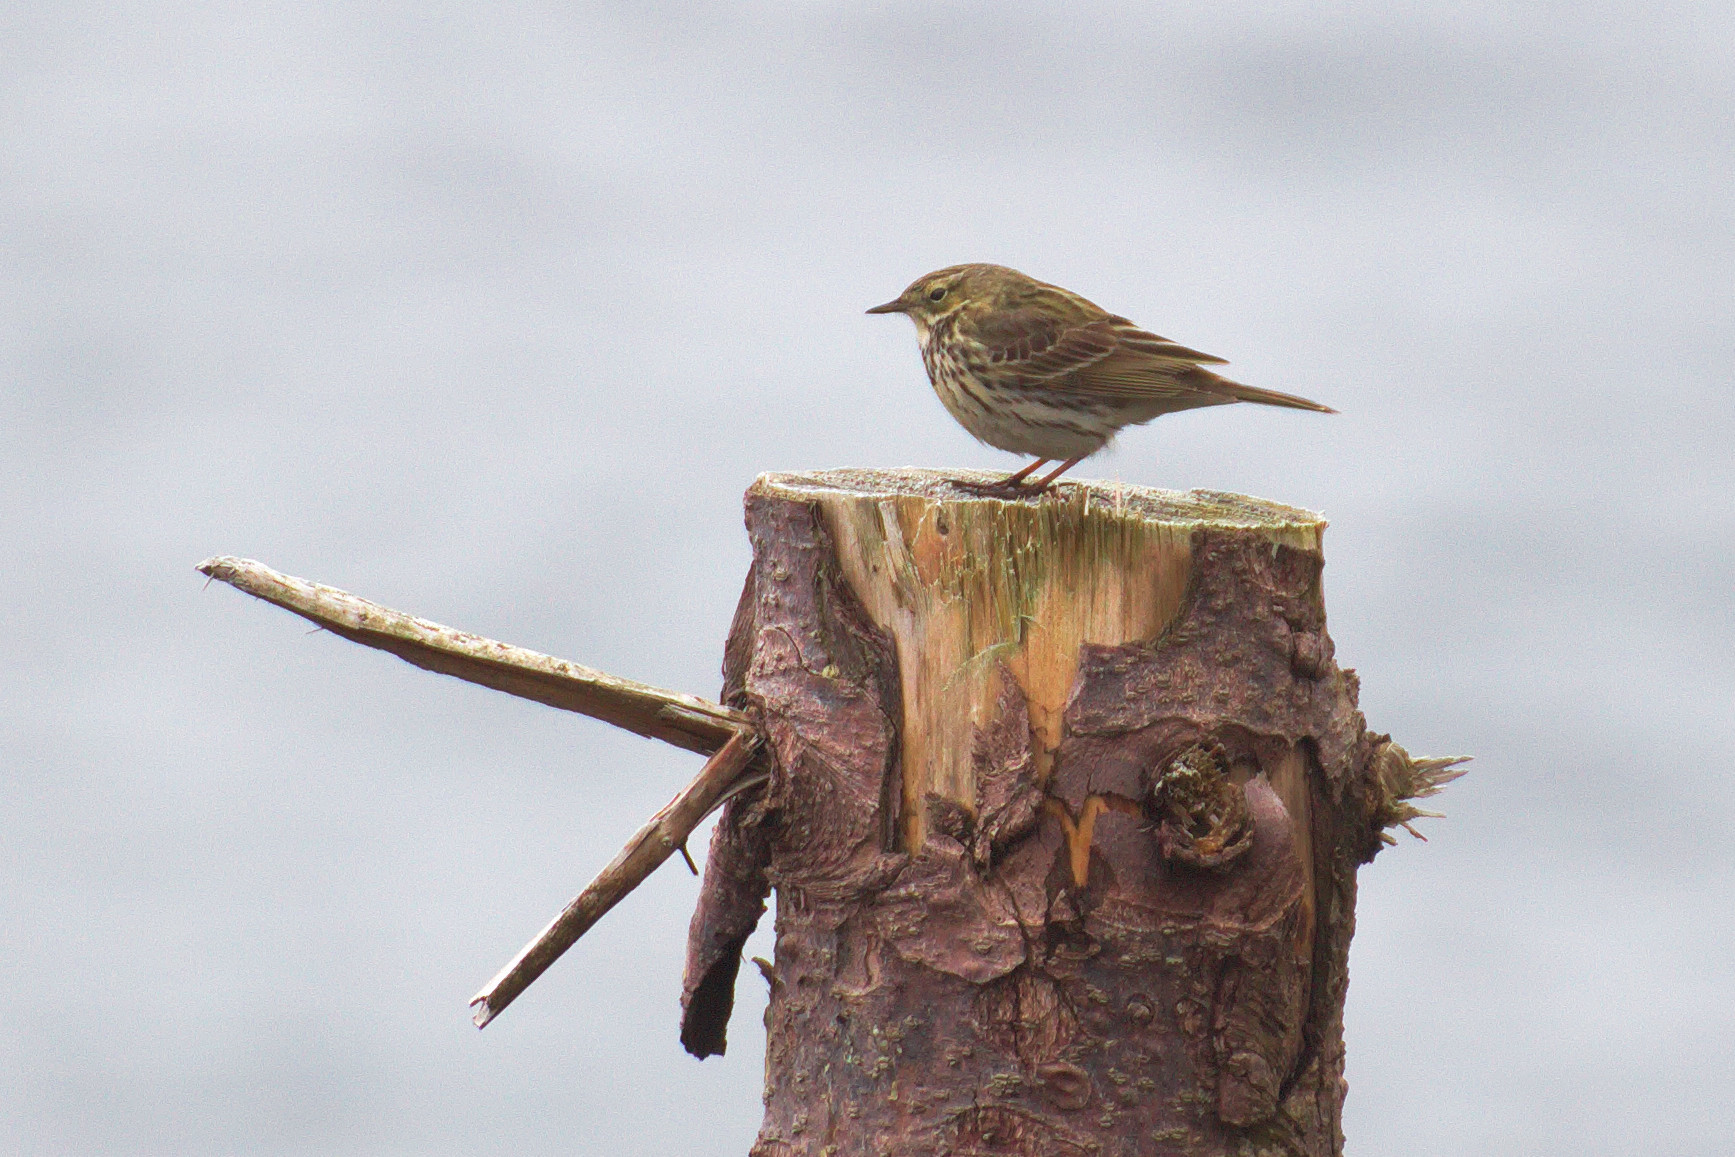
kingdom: Animalia
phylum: Chordata
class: Aves
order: Passeriformes
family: Motacillidae
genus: Anthus
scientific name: Anthus pratensis
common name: Meadow pipit
